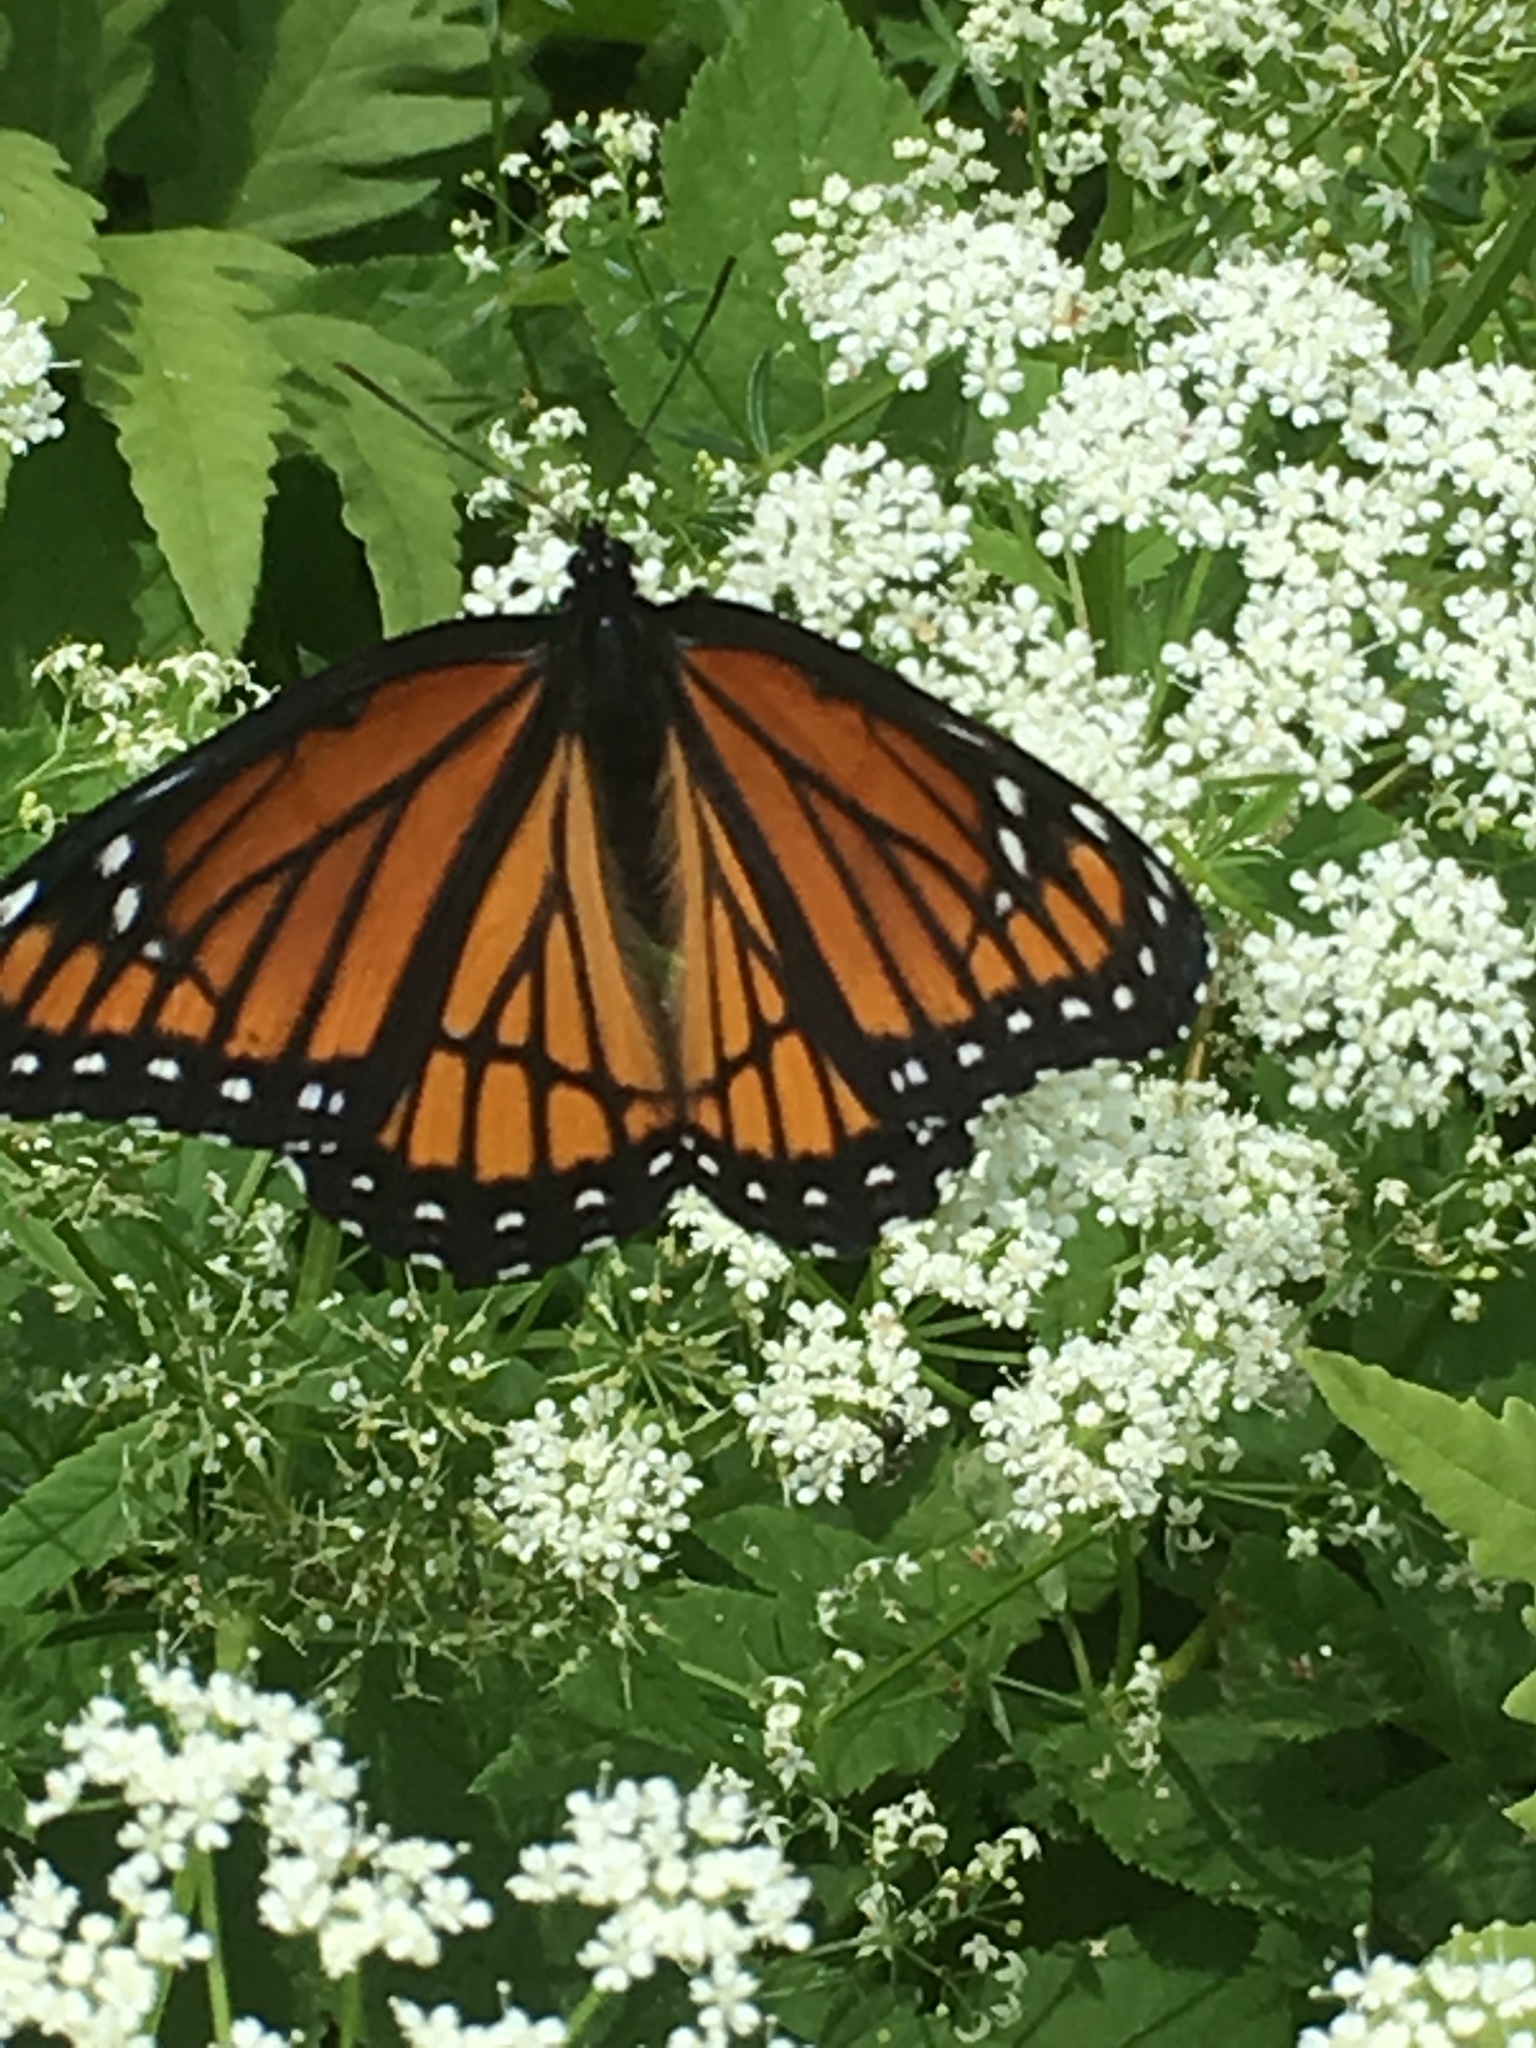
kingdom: Animalia
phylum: Arthropoda
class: Insecta
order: Lepidoptera
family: Nymphalidae
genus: Limenitis
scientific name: Limenitis archippus
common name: Viceroy
